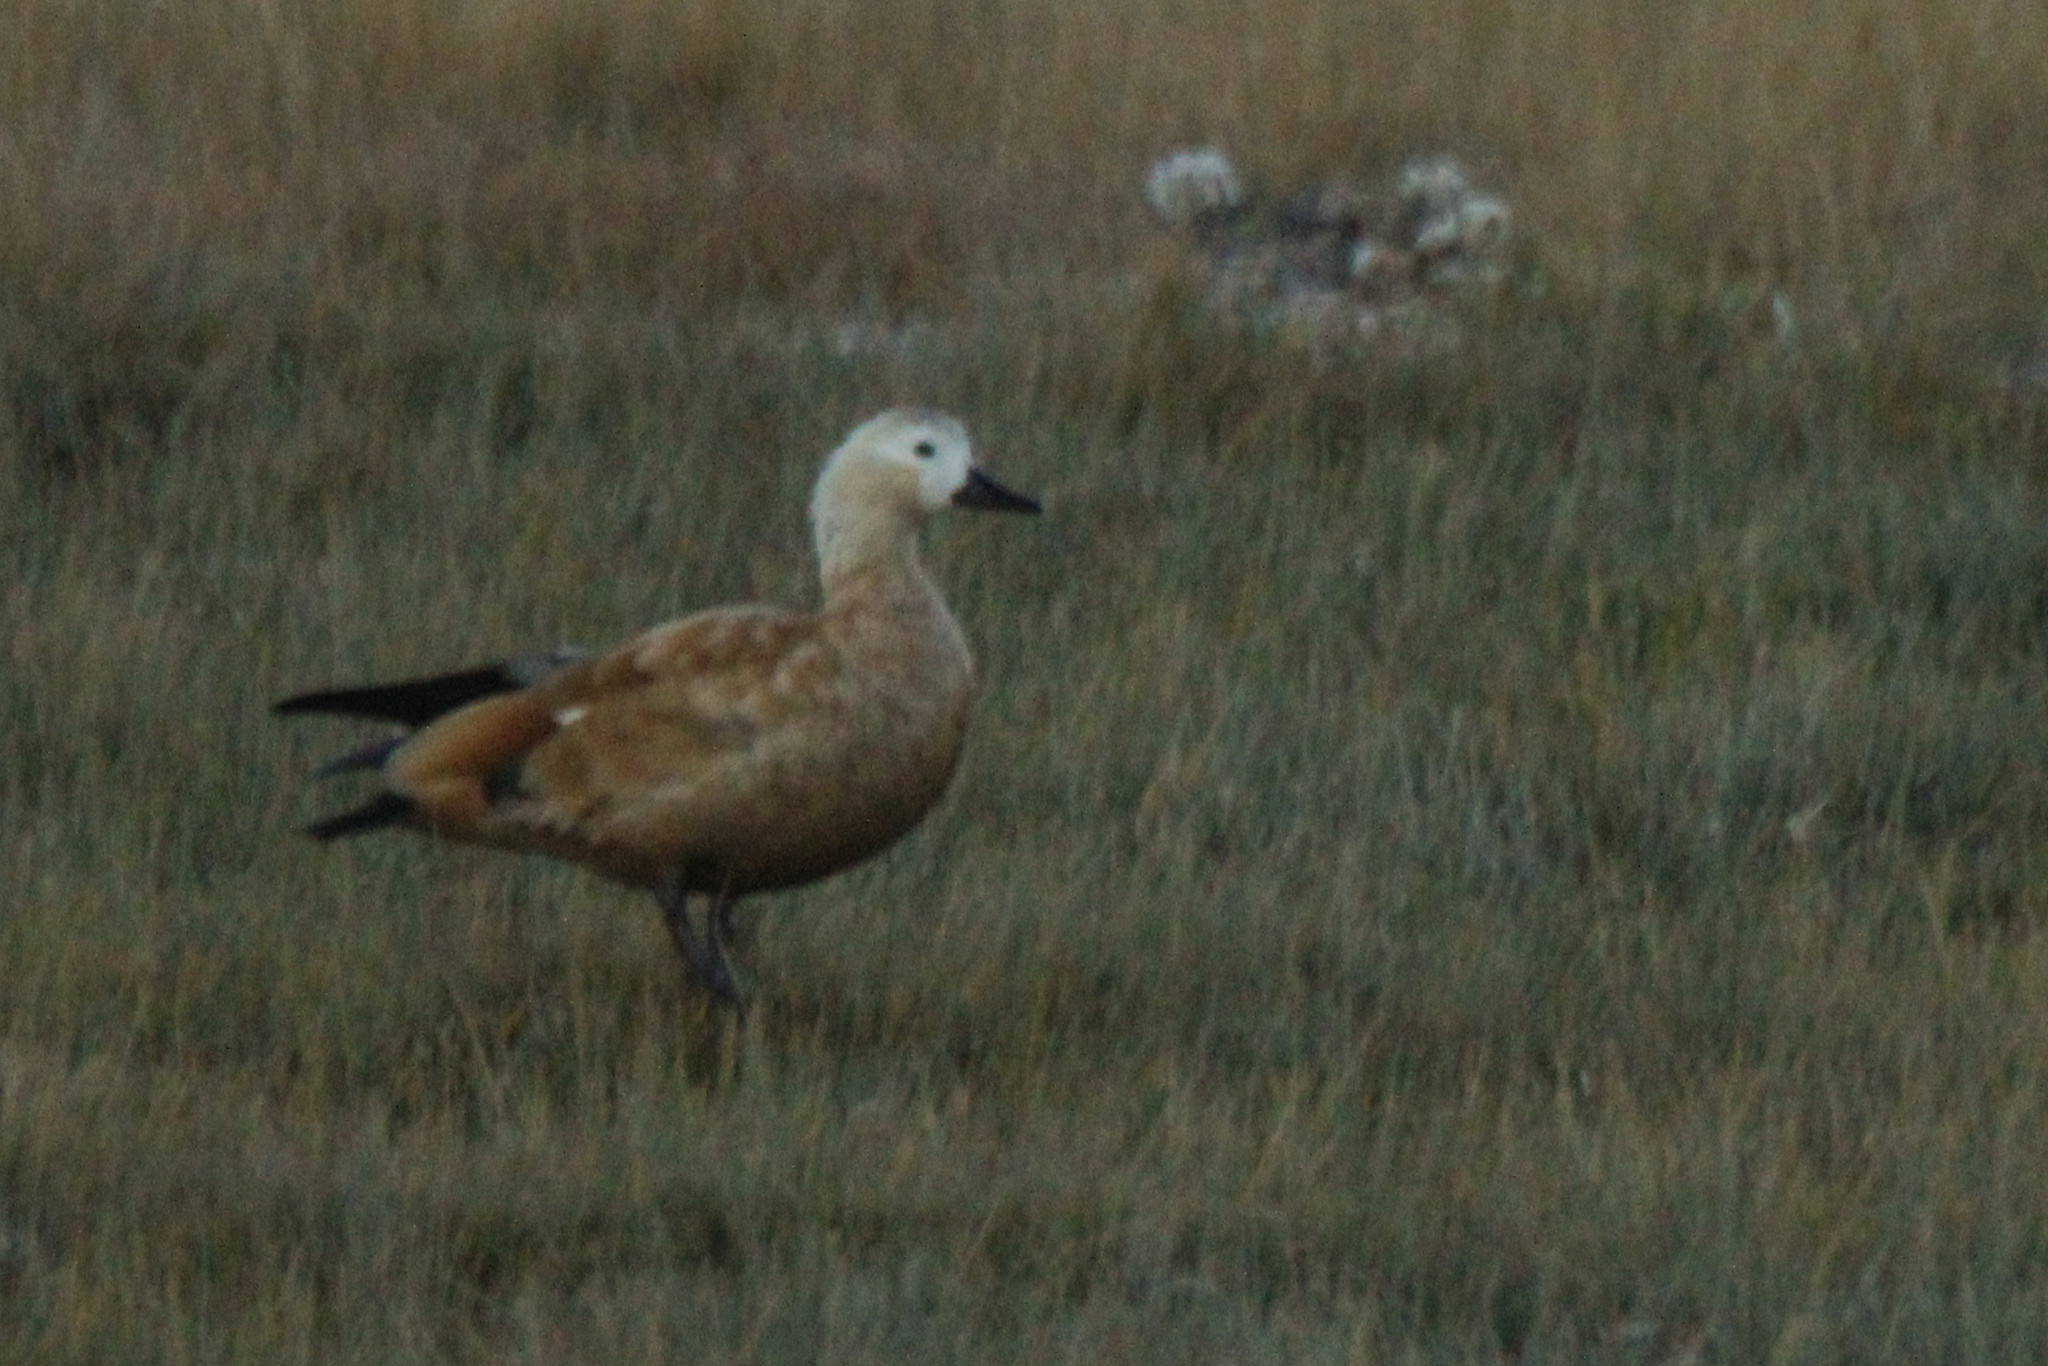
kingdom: Animalia
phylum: Chordata
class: Aves
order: Anseriformes
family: Anatidae
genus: Tadorna
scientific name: Tadorna ferruginea
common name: Ruddy shelduck
